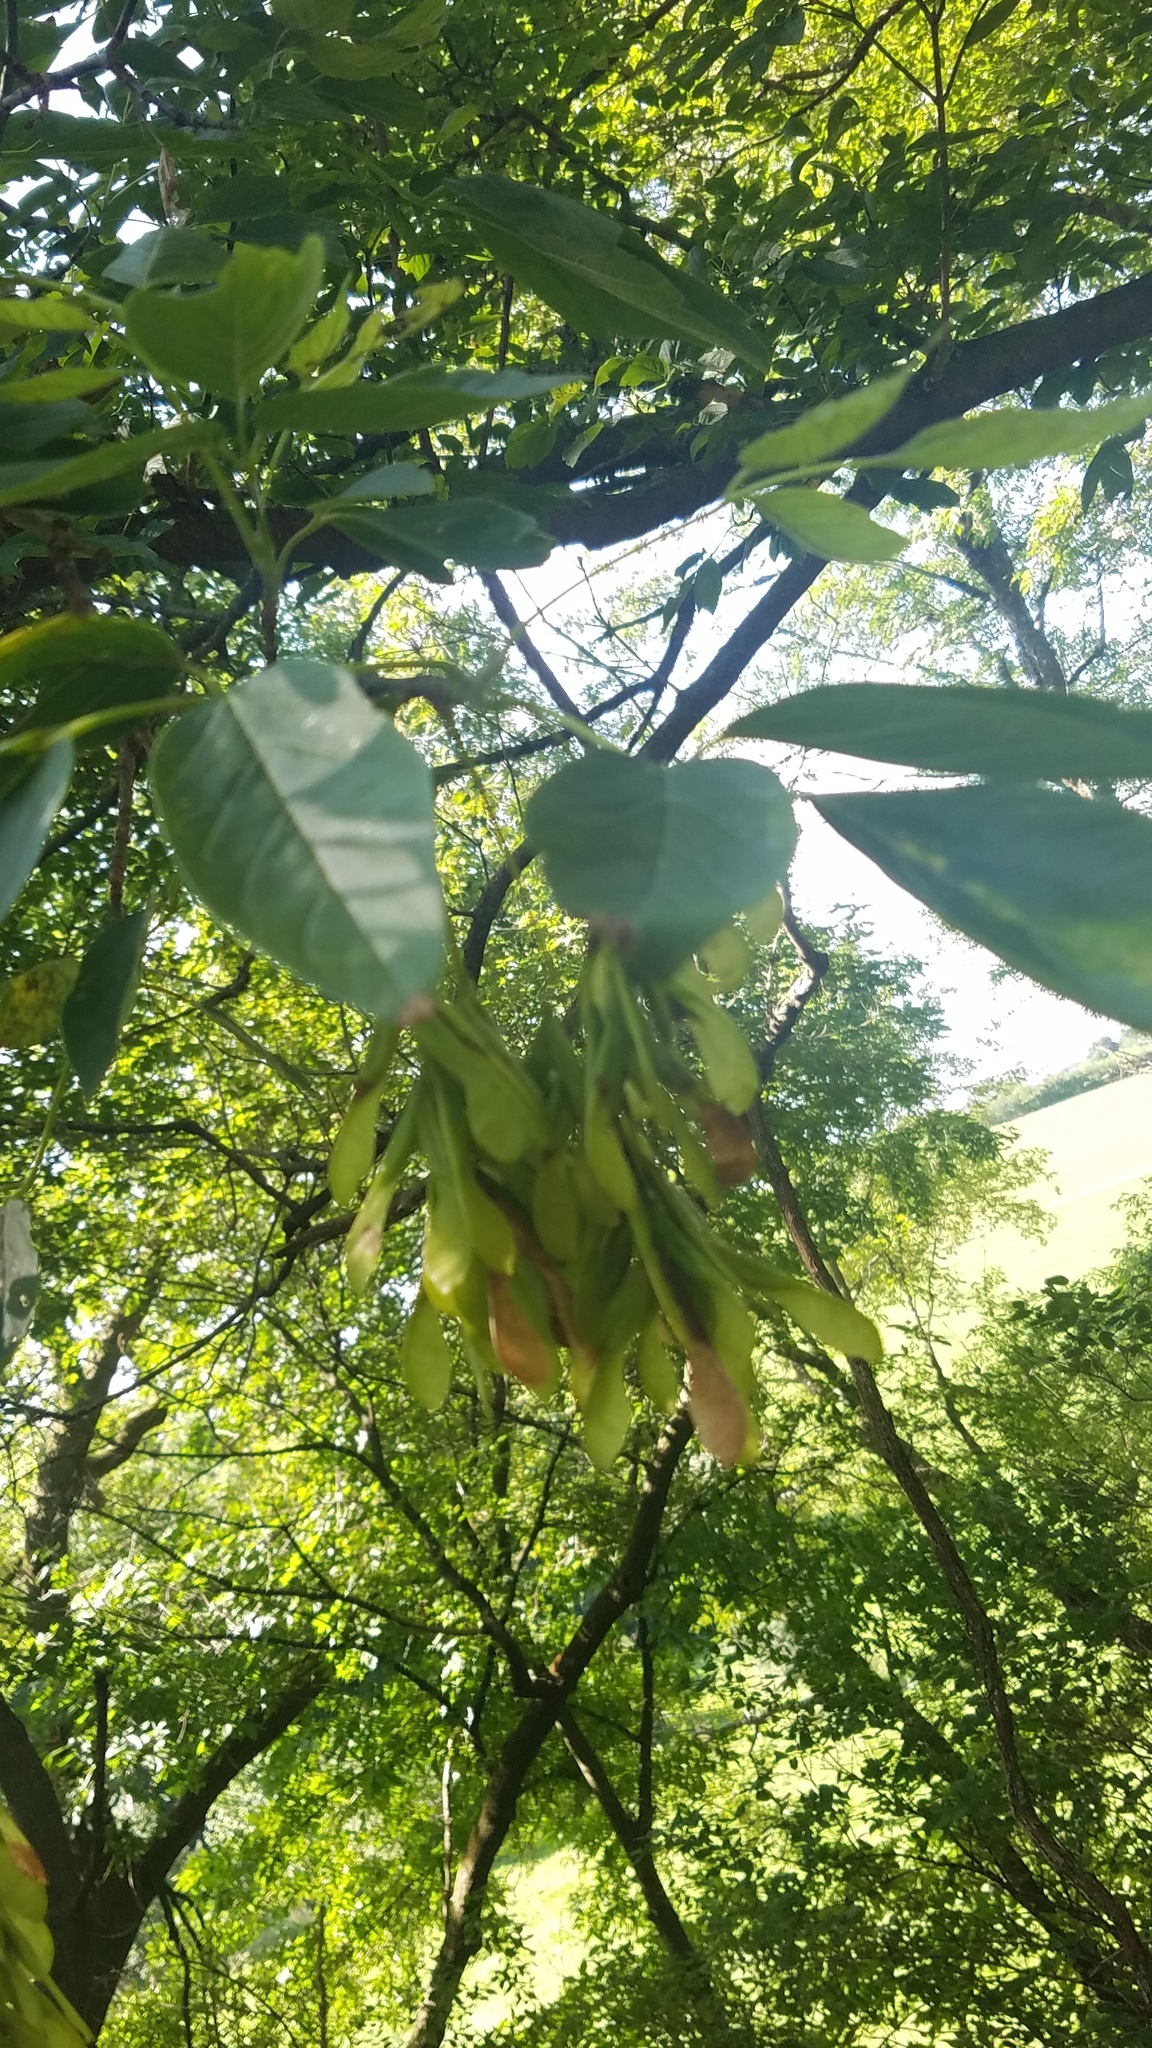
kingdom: Plantae
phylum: Tracheophyta
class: Magnoliopsida
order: Sapindales
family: Sapindaceae
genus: Acer
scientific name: Acer negundo
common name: Ashleaf maple
